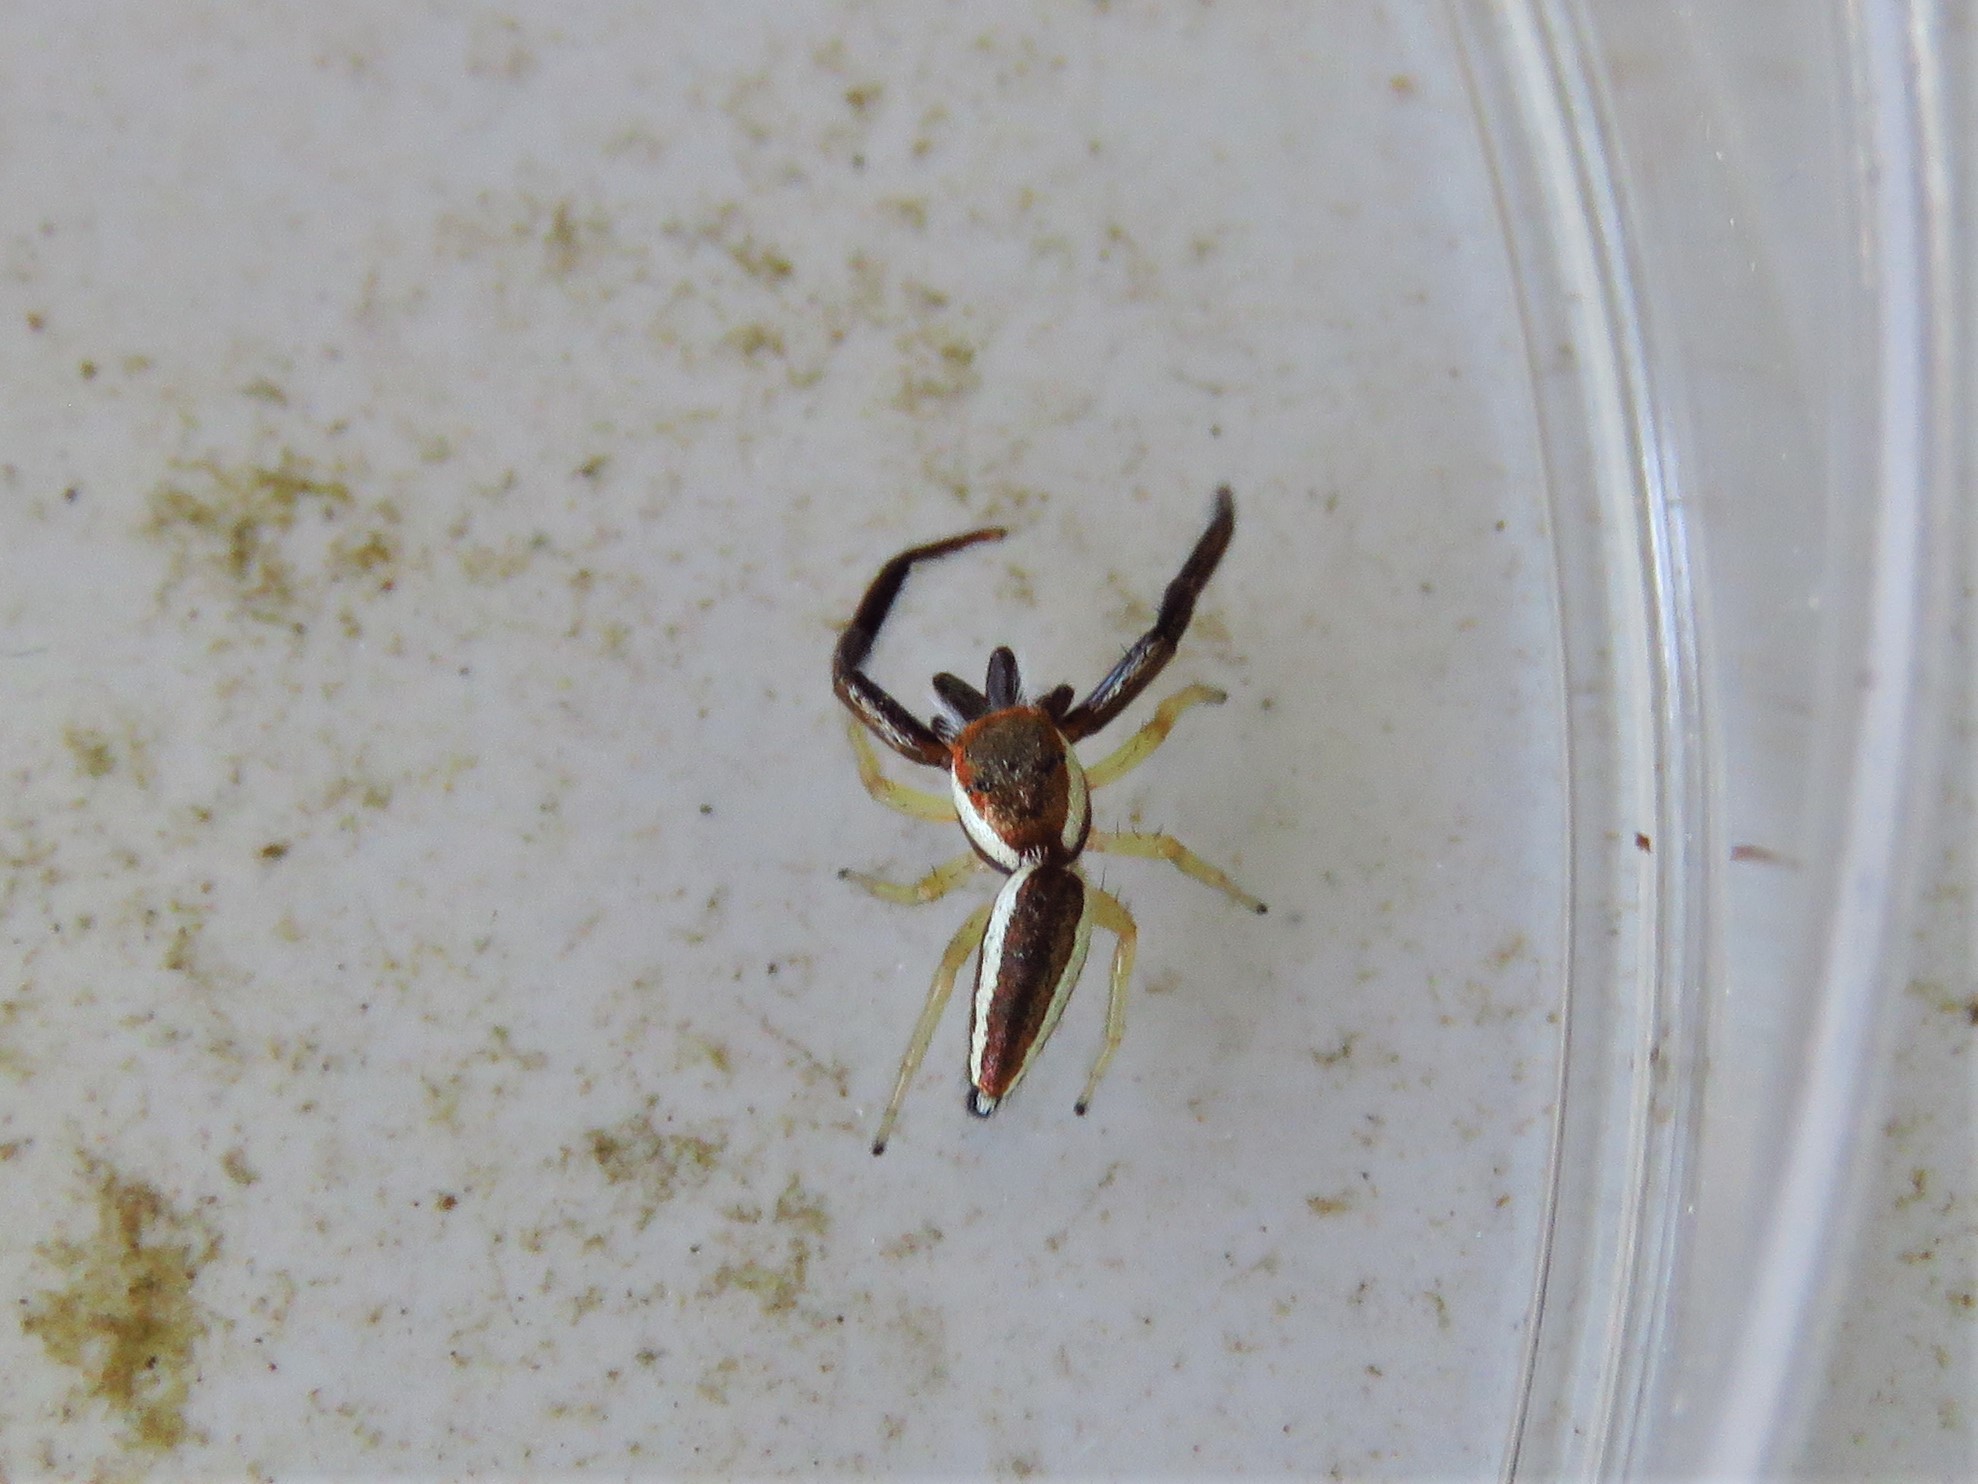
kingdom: Animalia
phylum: Arthropoda
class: Arachnida
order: Araneae
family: Salticidae
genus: Hentzia
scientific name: Hentzia palmarum
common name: Common hentz jumping spider
